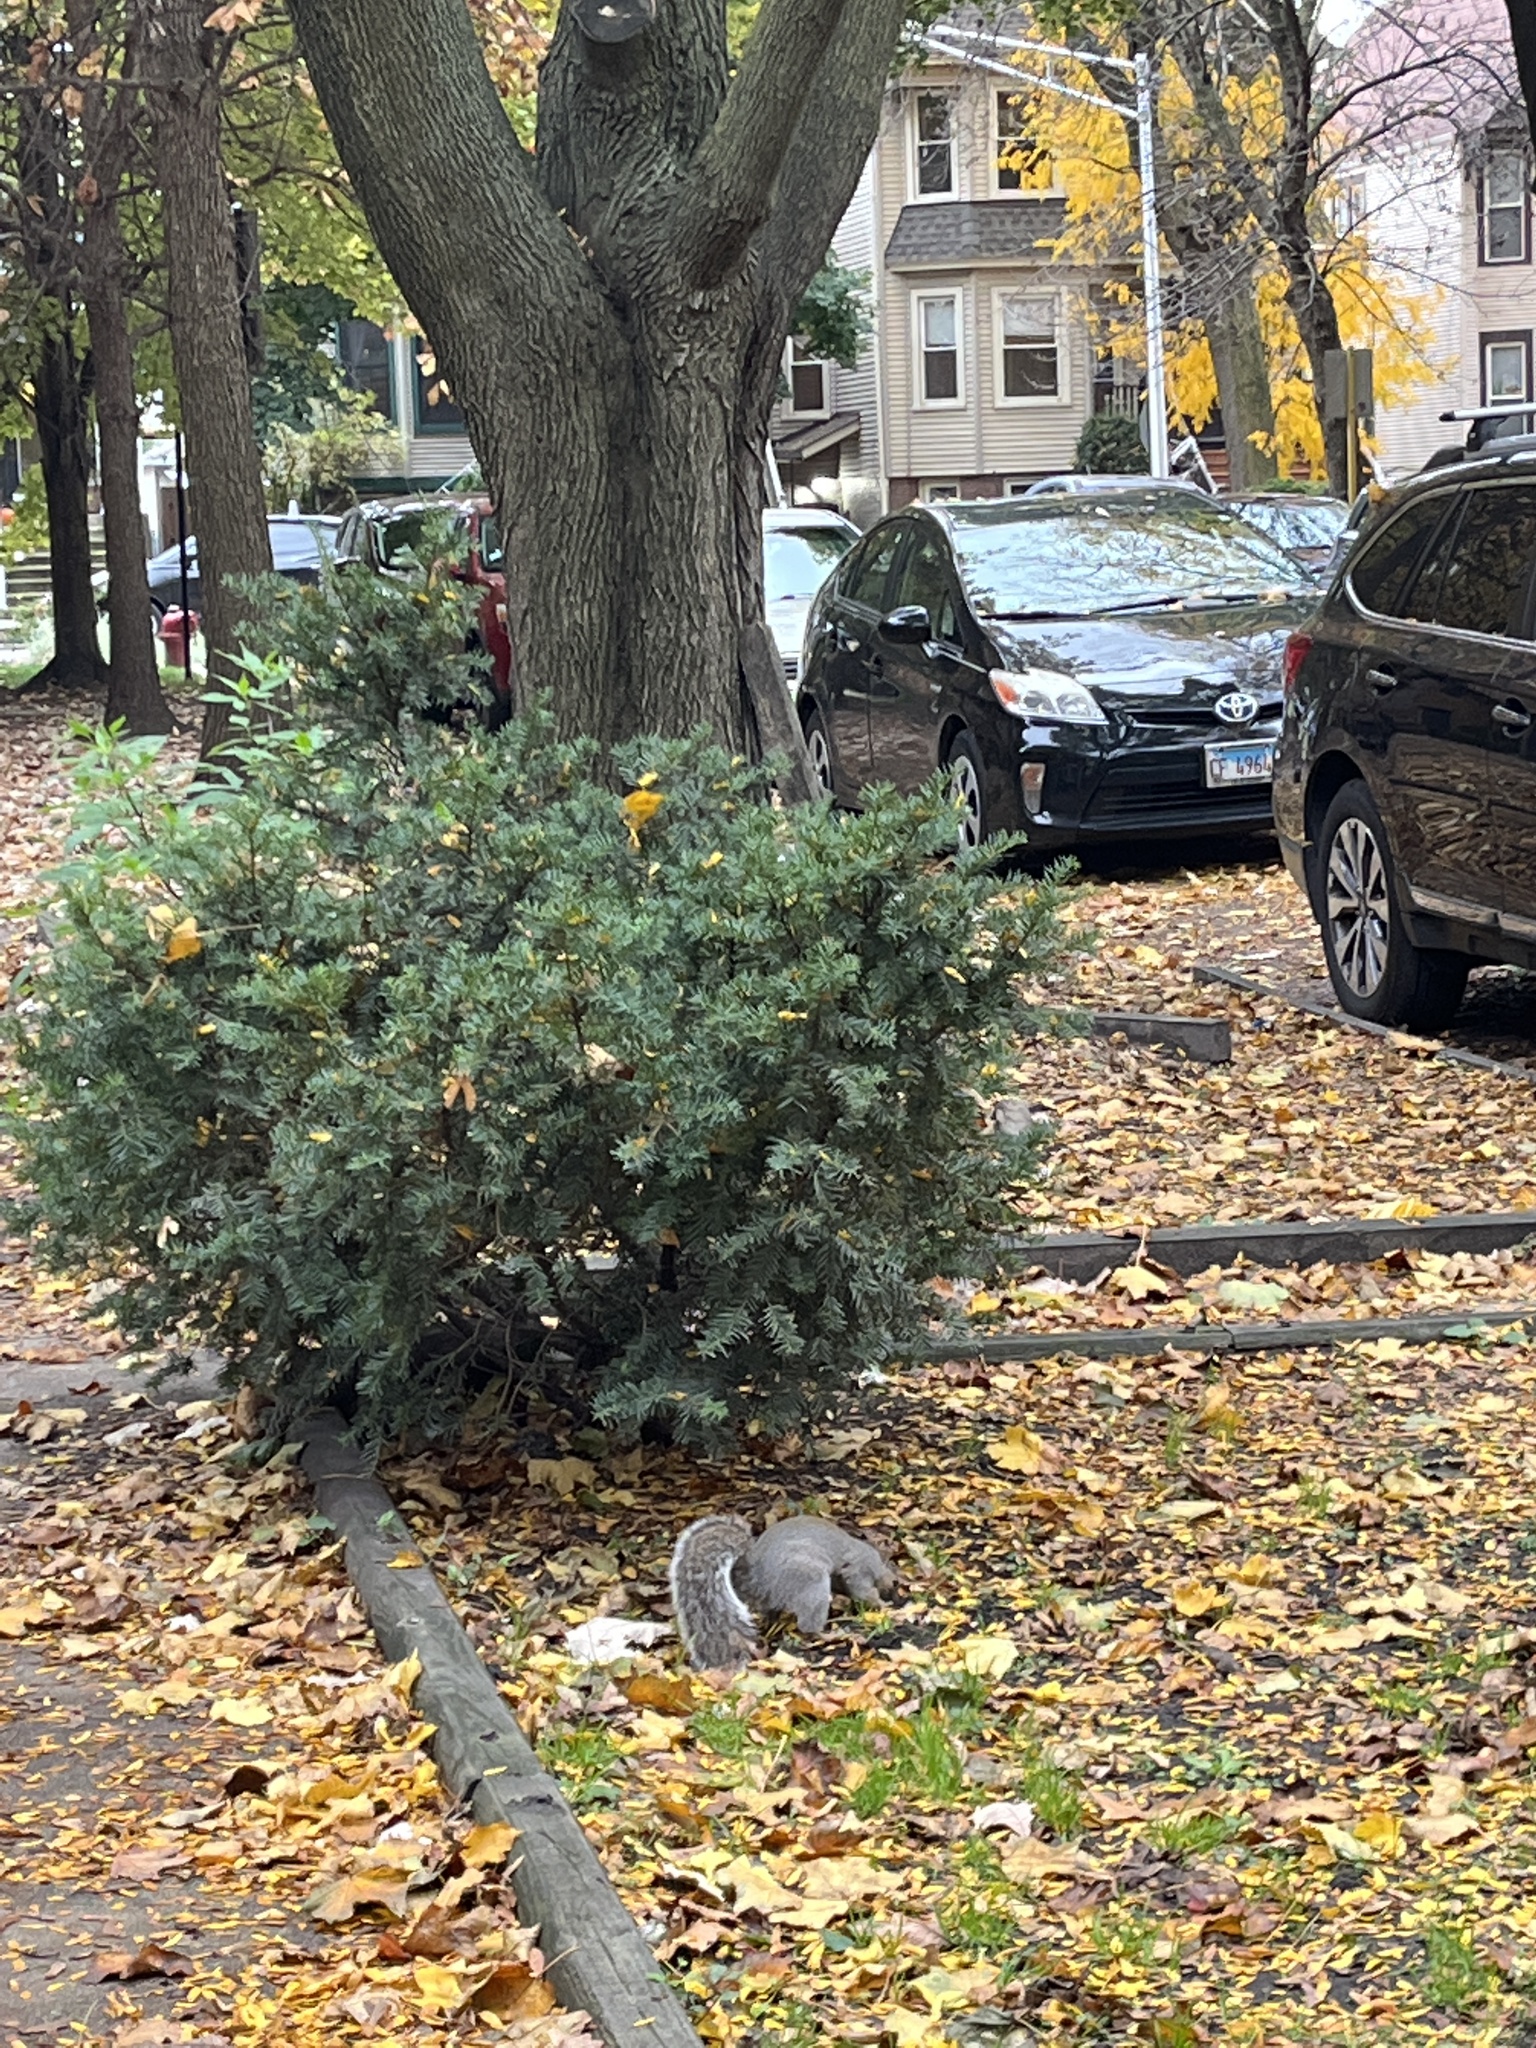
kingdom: Animalia
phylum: Chordata
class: Mammalia
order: Rodentia
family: Sciuridae
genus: Sciurus
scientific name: Sciurus carolinensis
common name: Eastern gray squirrel
